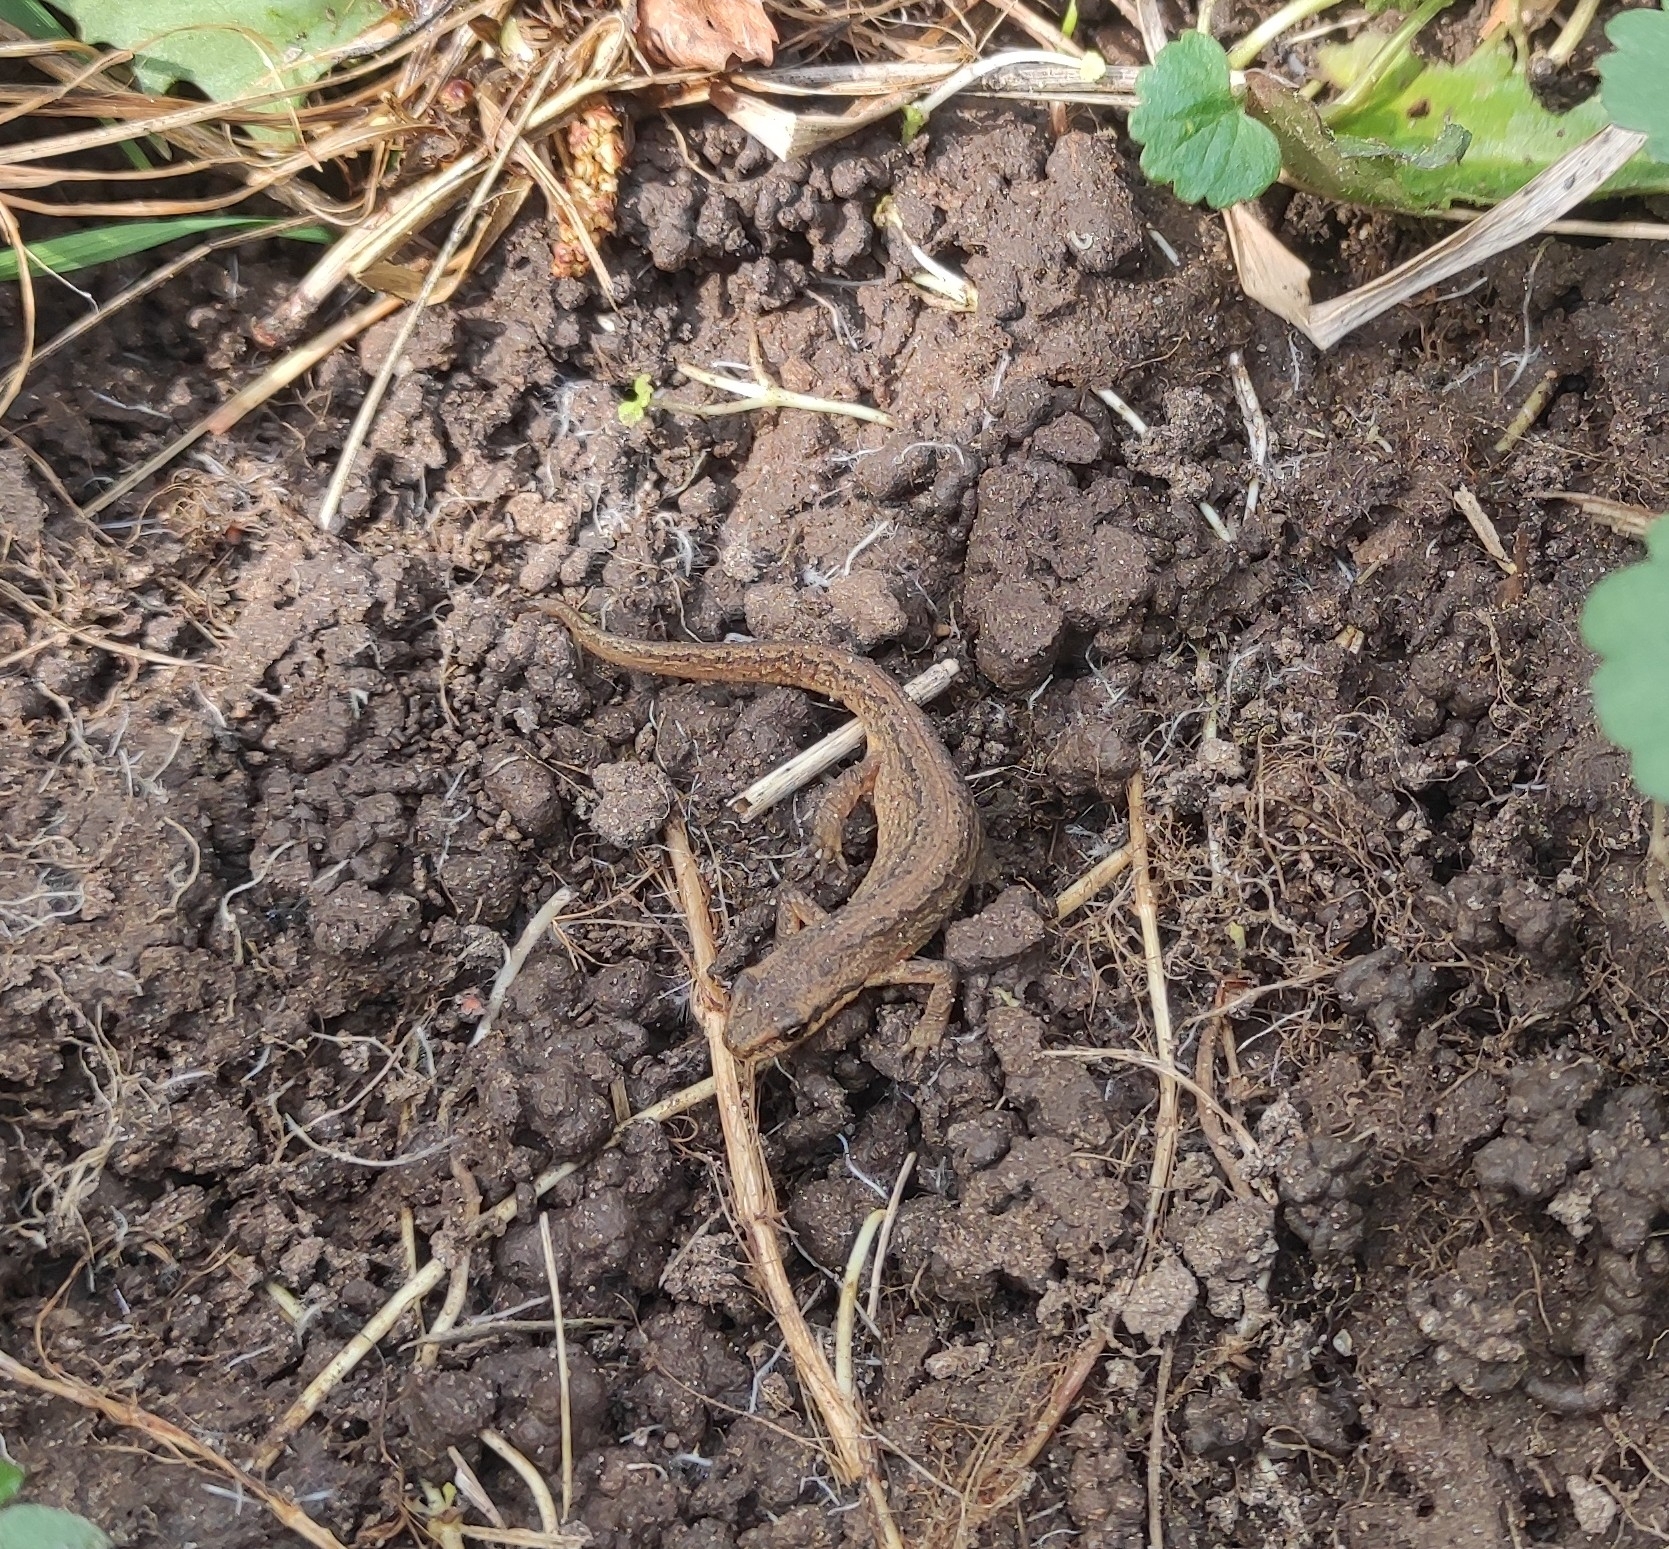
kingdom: Animalia
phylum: Chordata
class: Amphibia
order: Caudata
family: Salamandridae
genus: Lissotriton
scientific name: Lissotriton vulgaris
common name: Smooth newt
